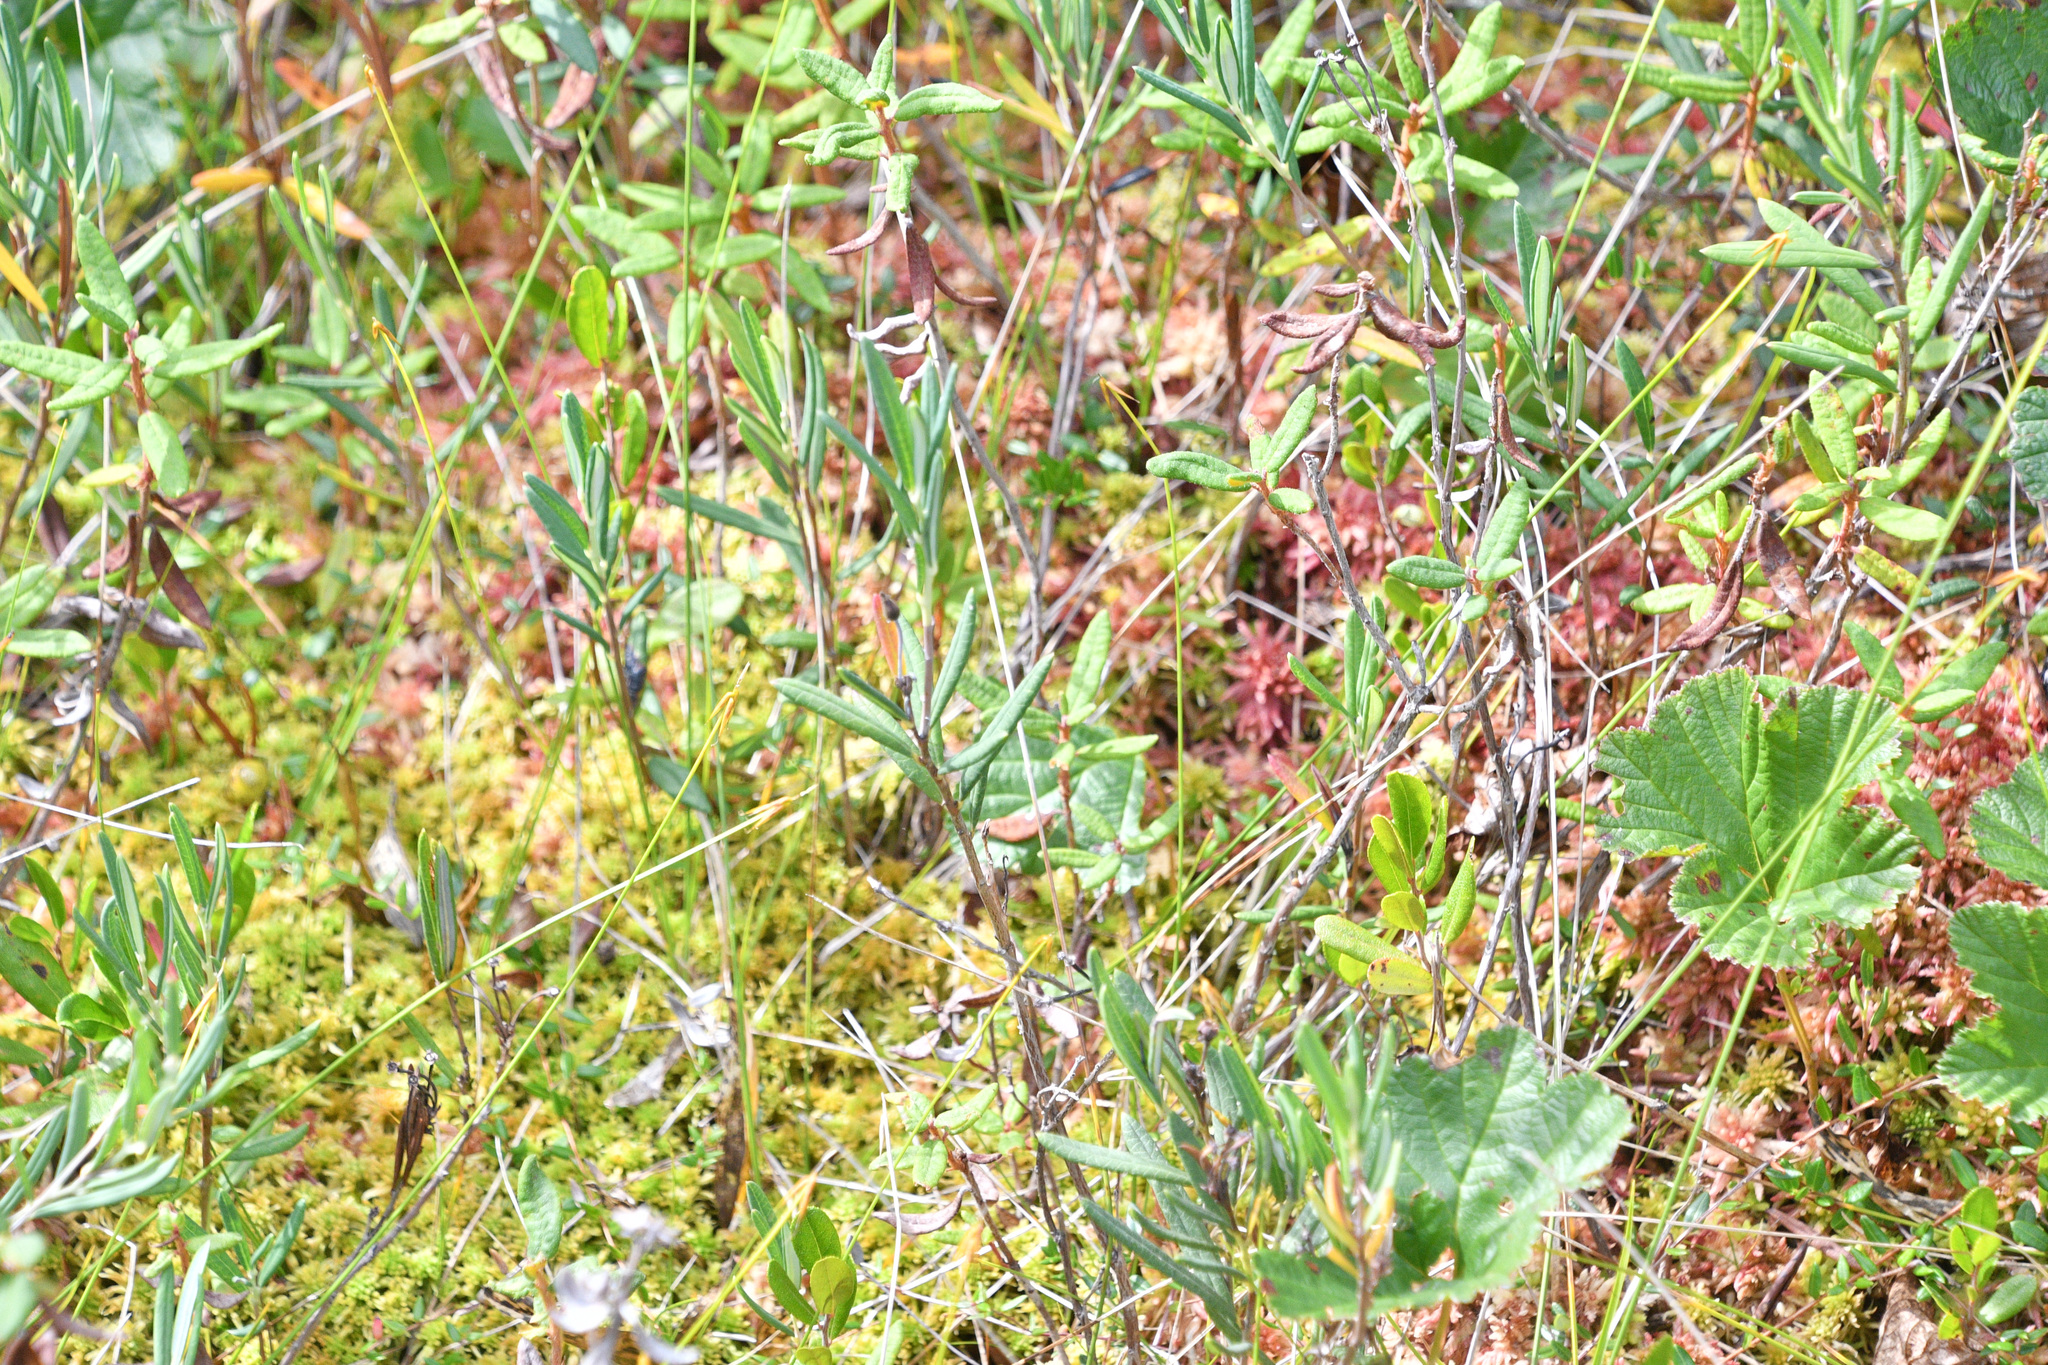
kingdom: Plantae
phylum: Tracheophyta
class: Magnoliopsida
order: Ericales
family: Ericaceae
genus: Andromeda
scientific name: Andromeda polifolia
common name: Bog-rosemary
